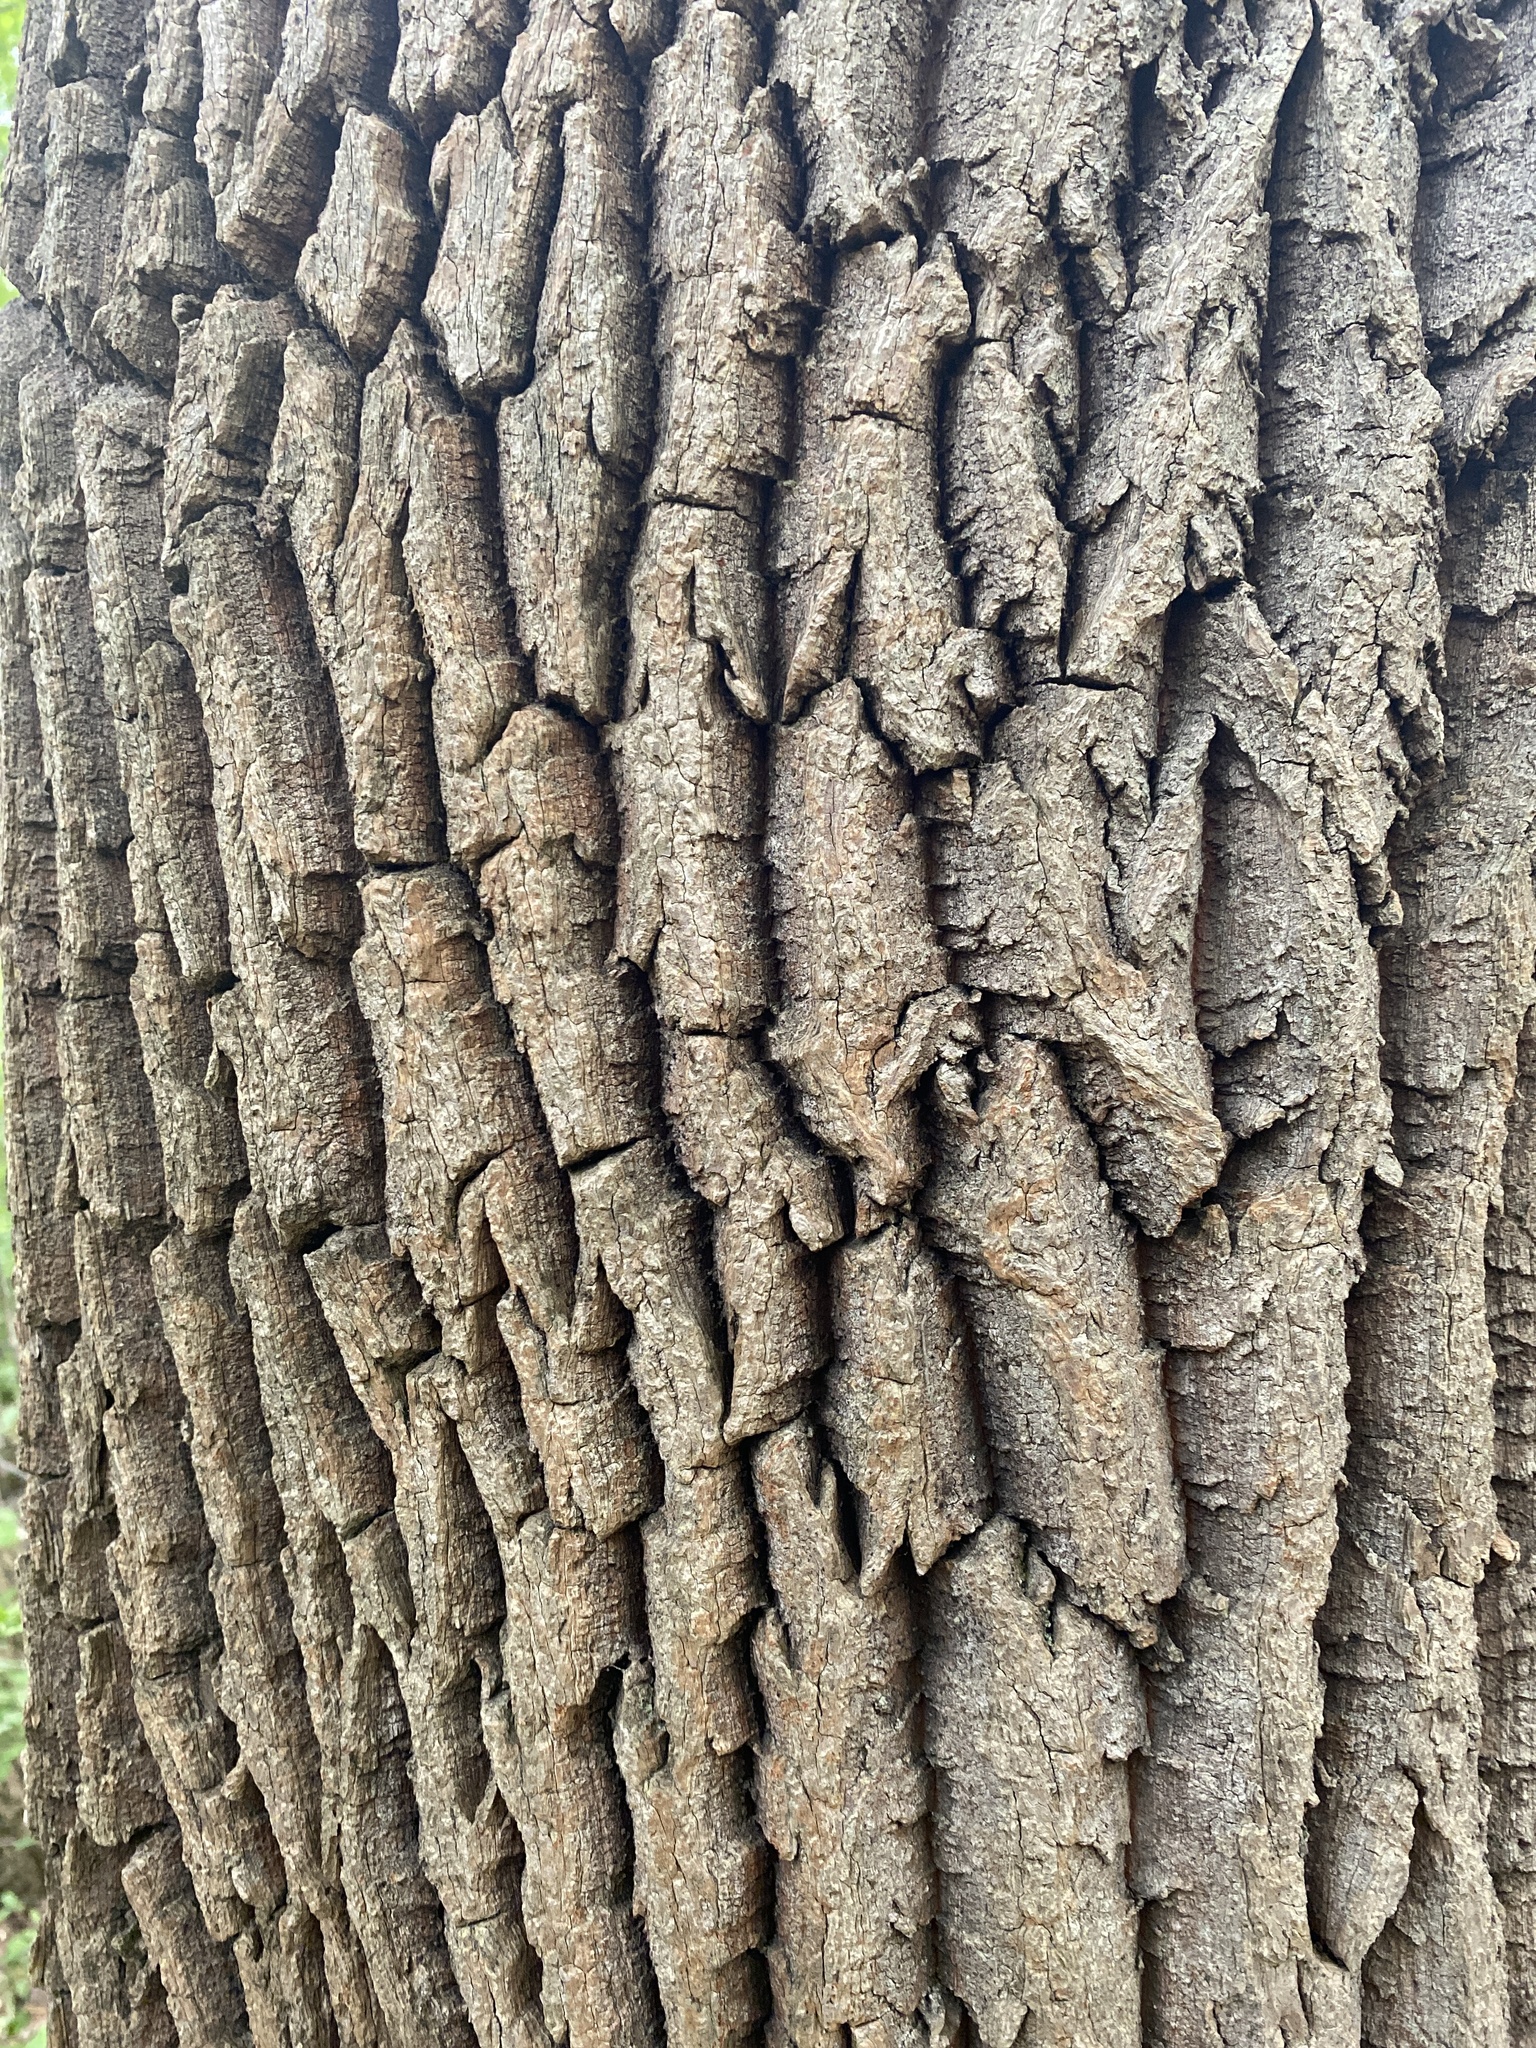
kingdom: Plantae
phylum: Tracheophyta
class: Magnoliopsida
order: Ericales
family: Ericaceae
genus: Oxydendrum
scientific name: Oxydendrum arboreum
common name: Sourwood
